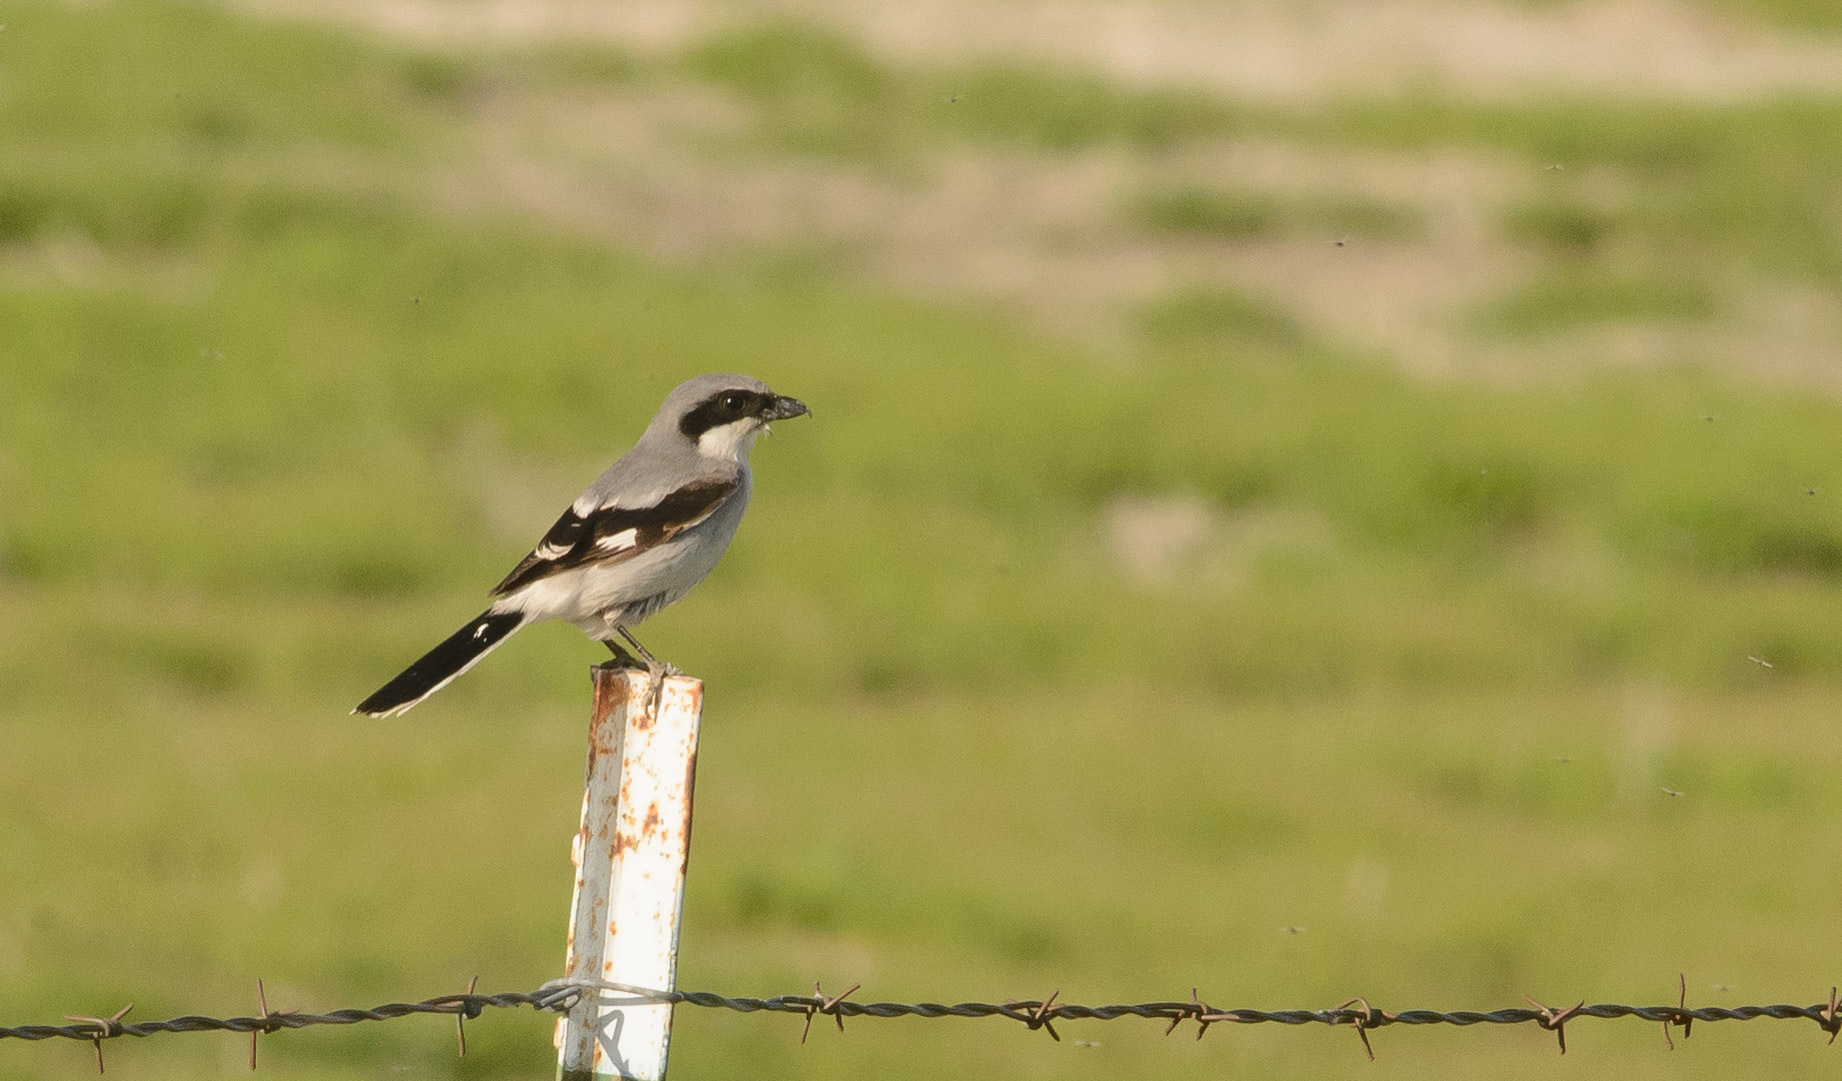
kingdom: Animalia
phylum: Chordata
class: Aves
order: Passeriformes
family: Laniidae
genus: Lanius
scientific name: Lanius ludovicianus
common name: Loggerhead shrike
